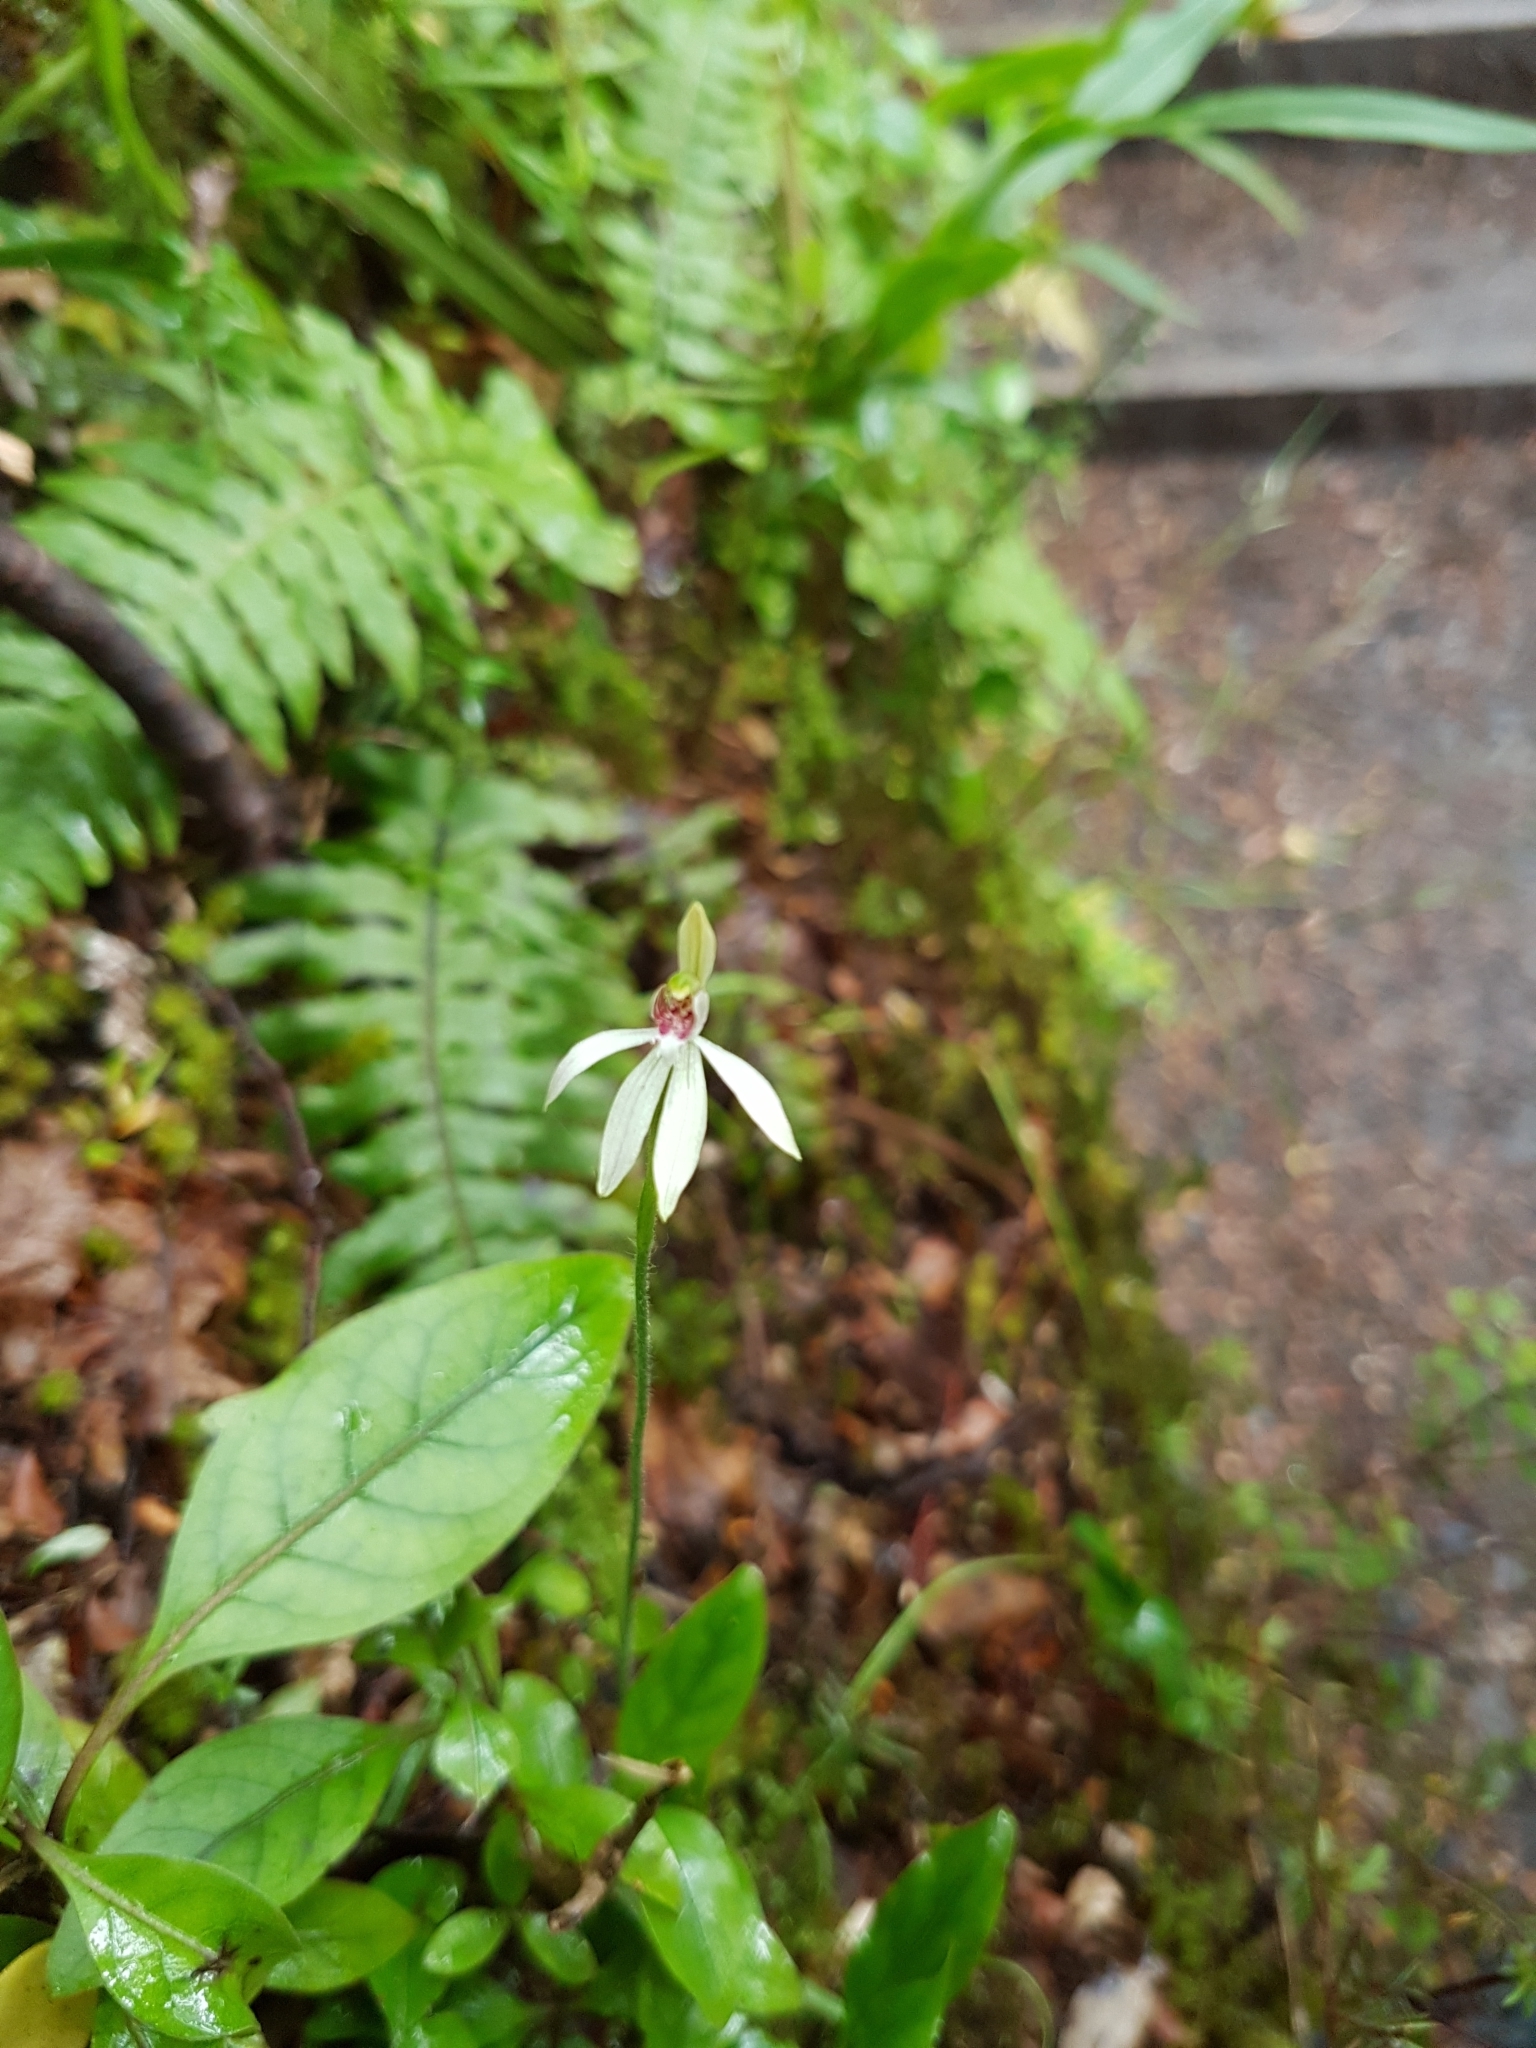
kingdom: Plantae
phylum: Tracheophyta
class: Liliopsida
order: Asparagales
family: Orchidaceae
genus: Caladenia
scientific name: Caladenia chlorostyla
